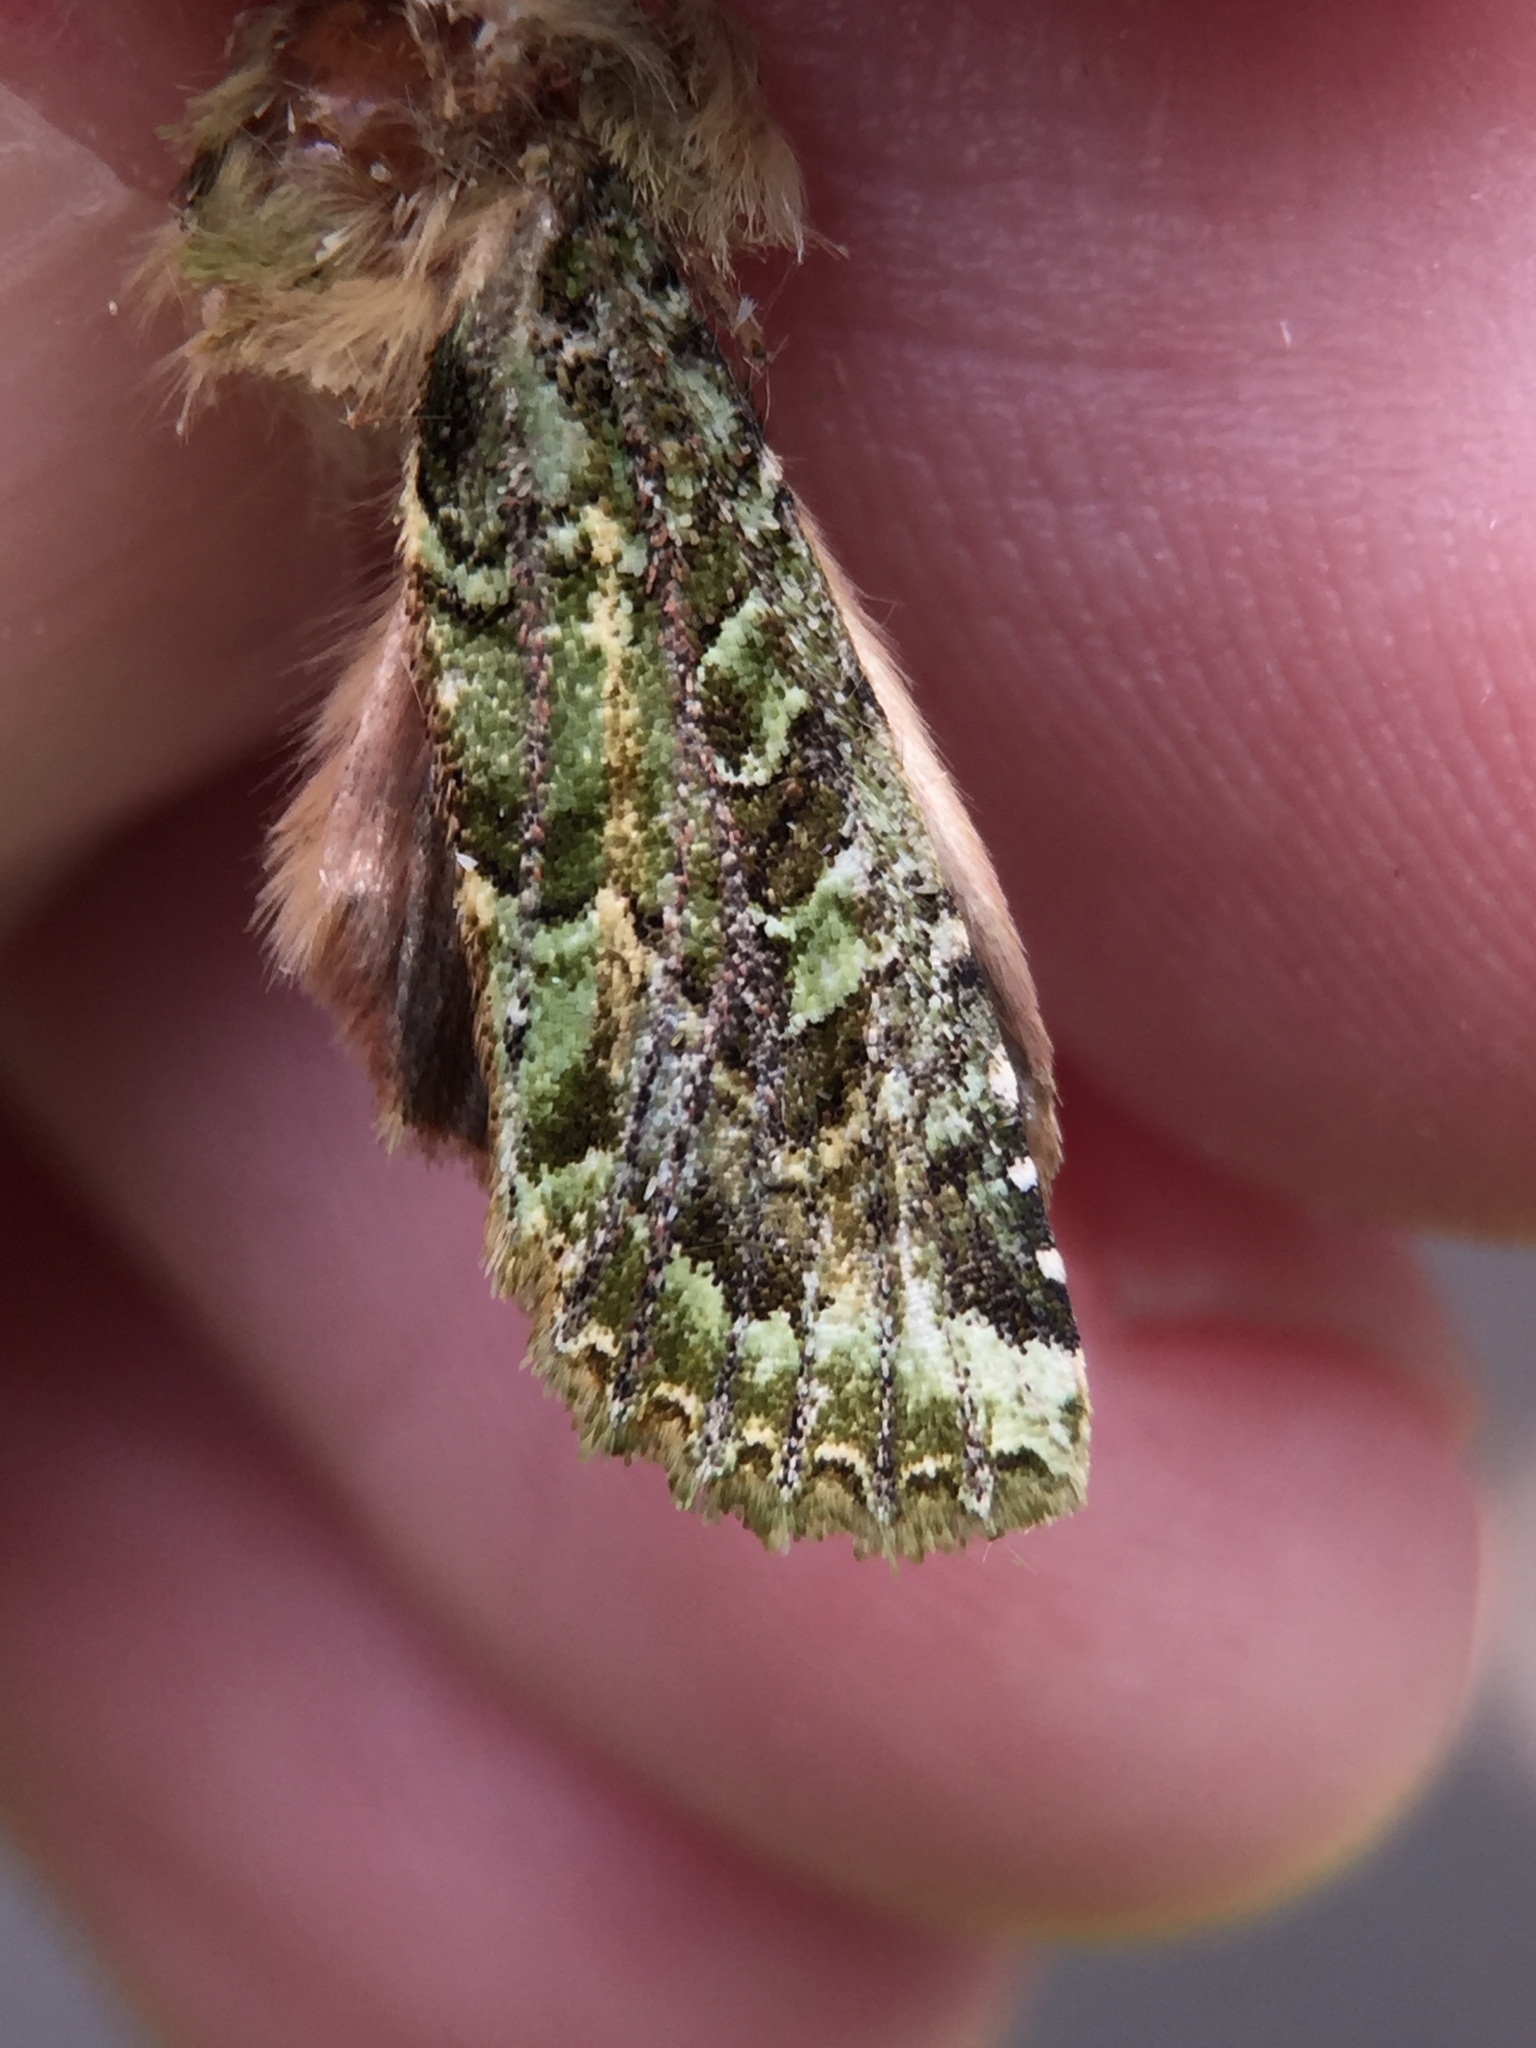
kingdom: Animalia
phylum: Arthropoda
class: Insecta
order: Lepidoptera
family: Noctuidae
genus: Feredayia
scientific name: Feredayia grammosa
